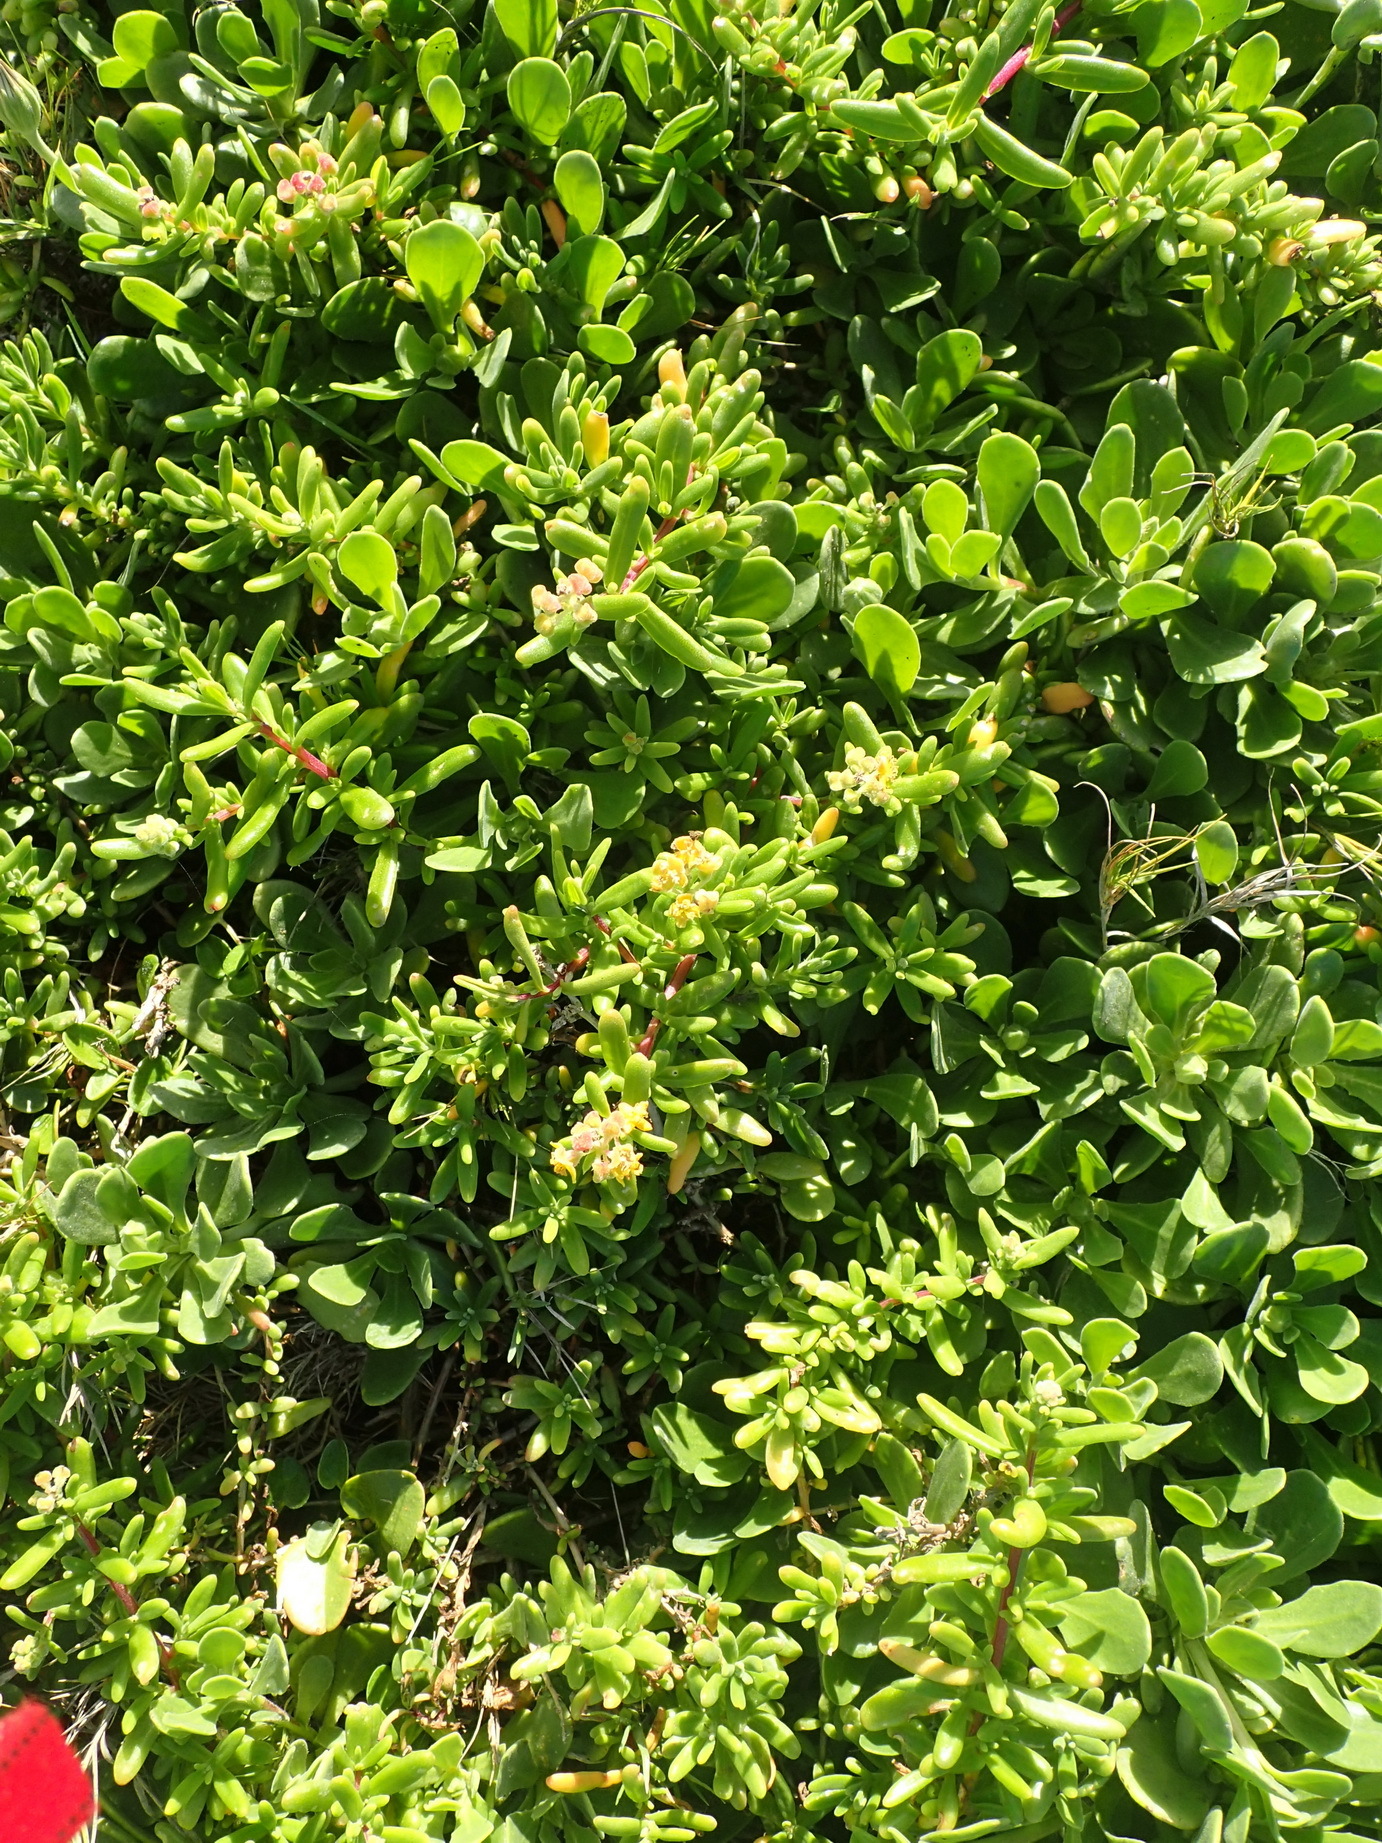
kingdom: Plantae
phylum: Tracheophyta
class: Magnoliopsida
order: Caryophyllales
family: Aizoaceae
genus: Tetragonia
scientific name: Tetragonia fruticosa
